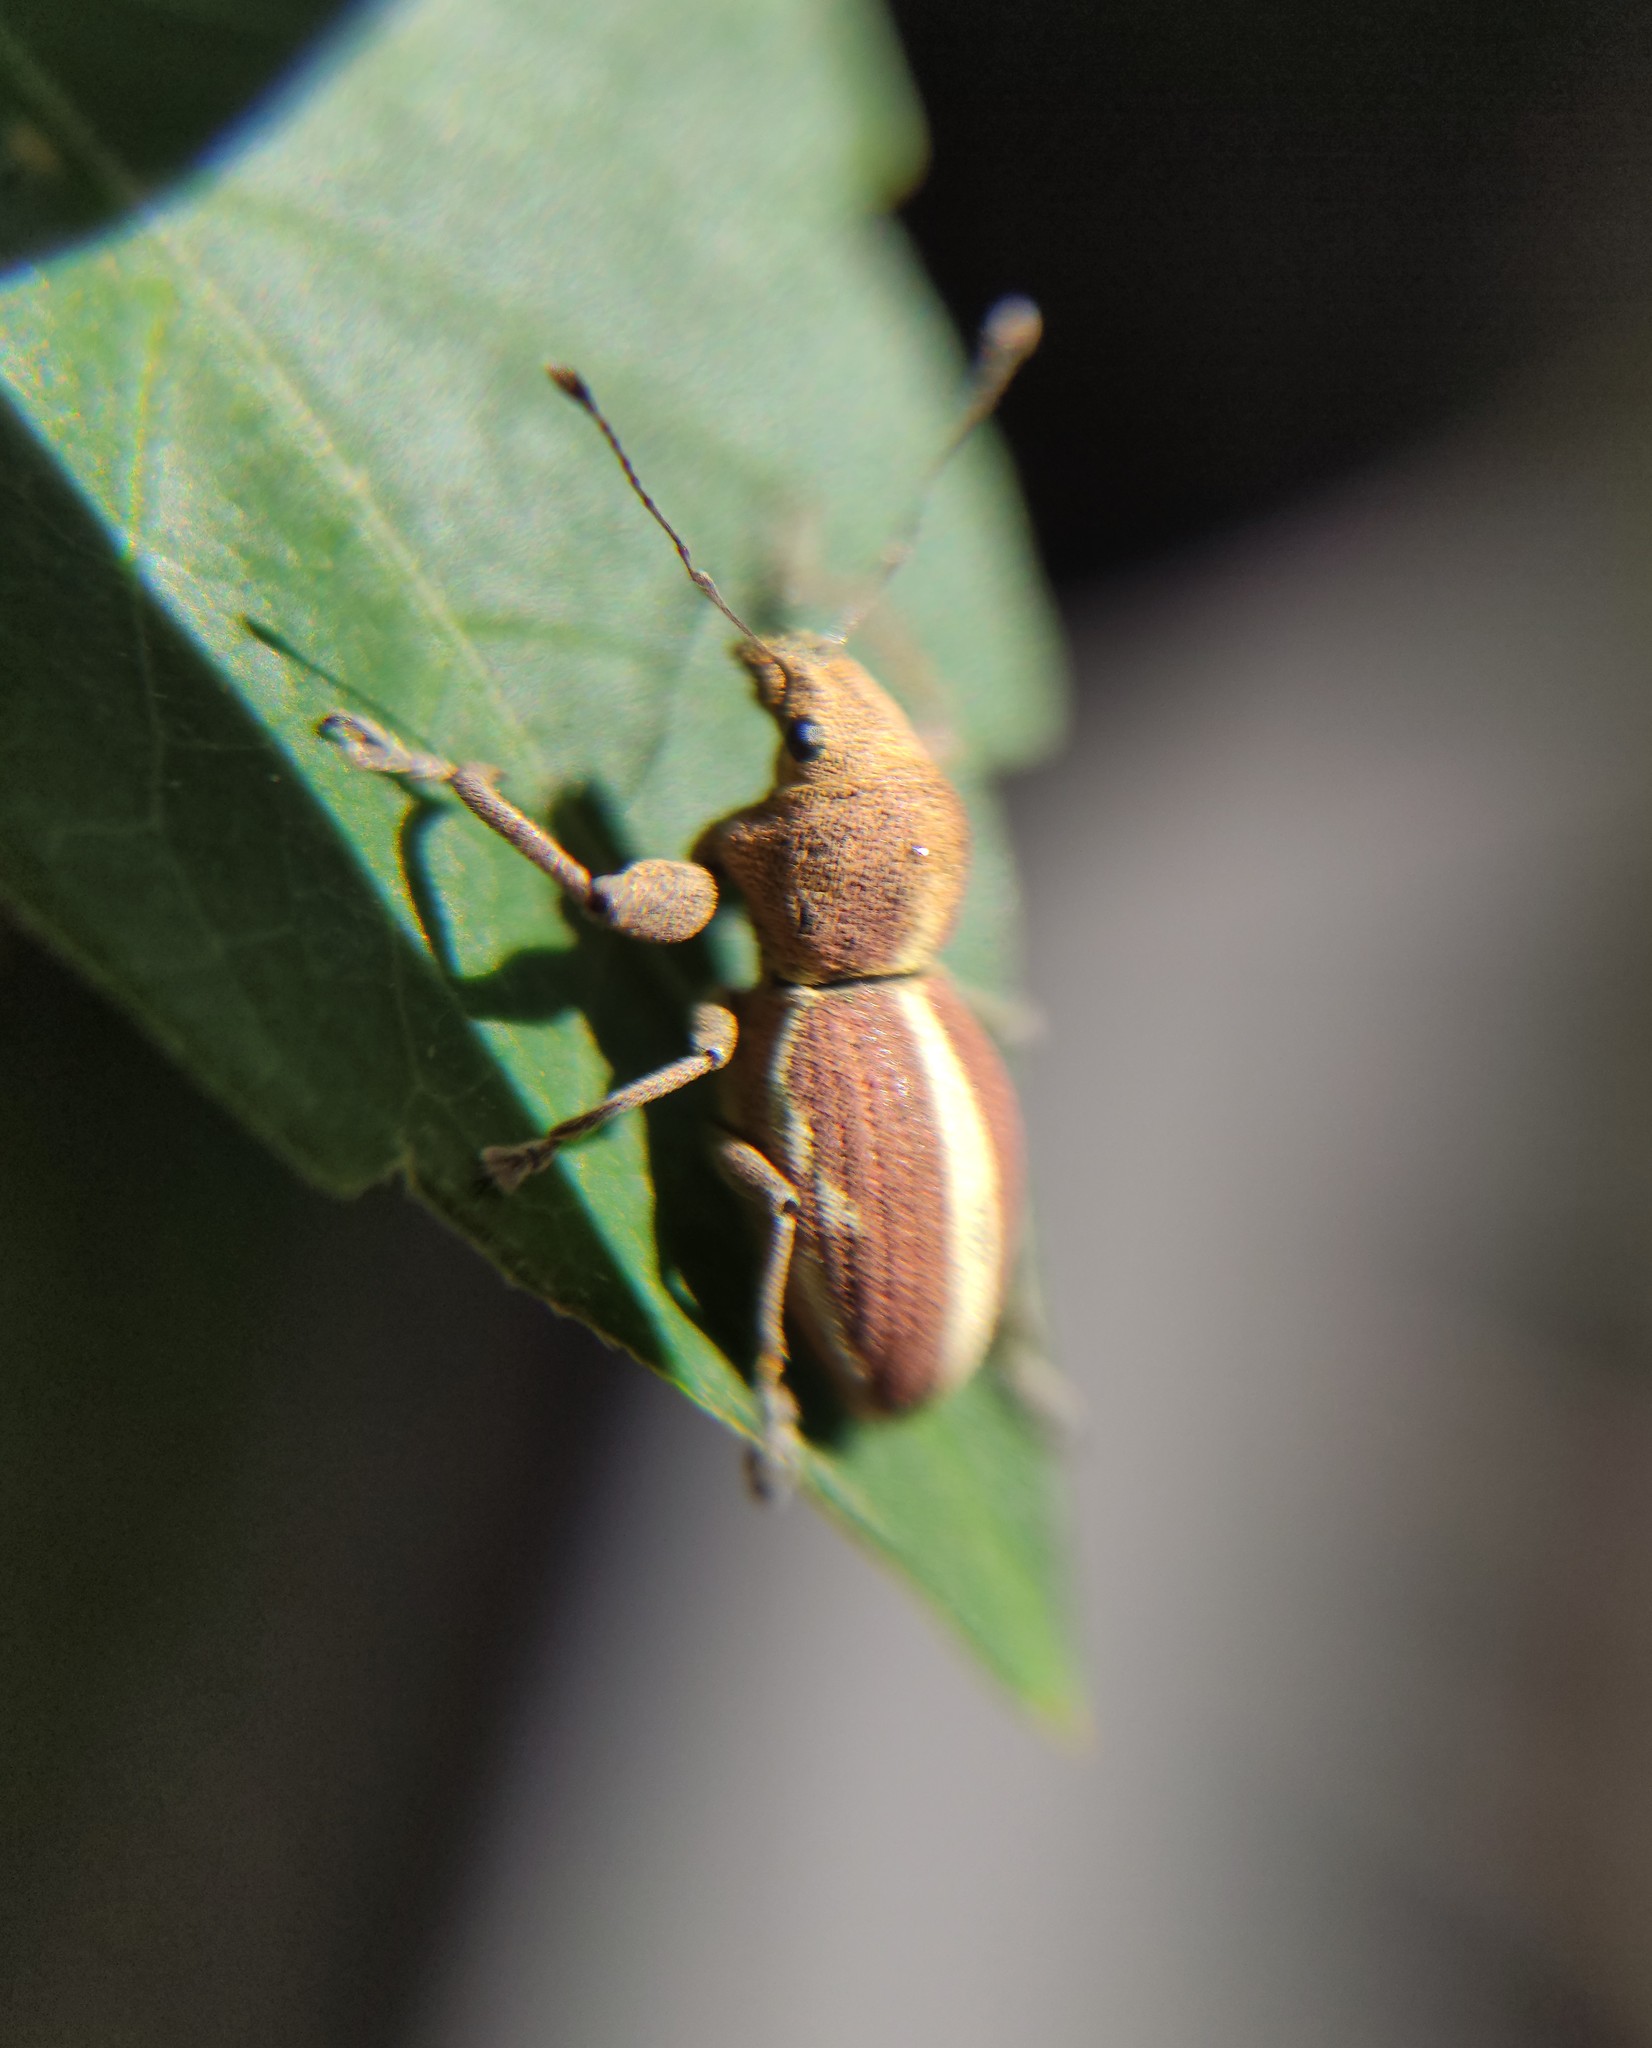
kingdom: Animalia
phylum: Arthropoda
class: Insecta
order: Coleoptera
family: Curculionidae
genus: Alceis
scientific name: Alceis curtus
